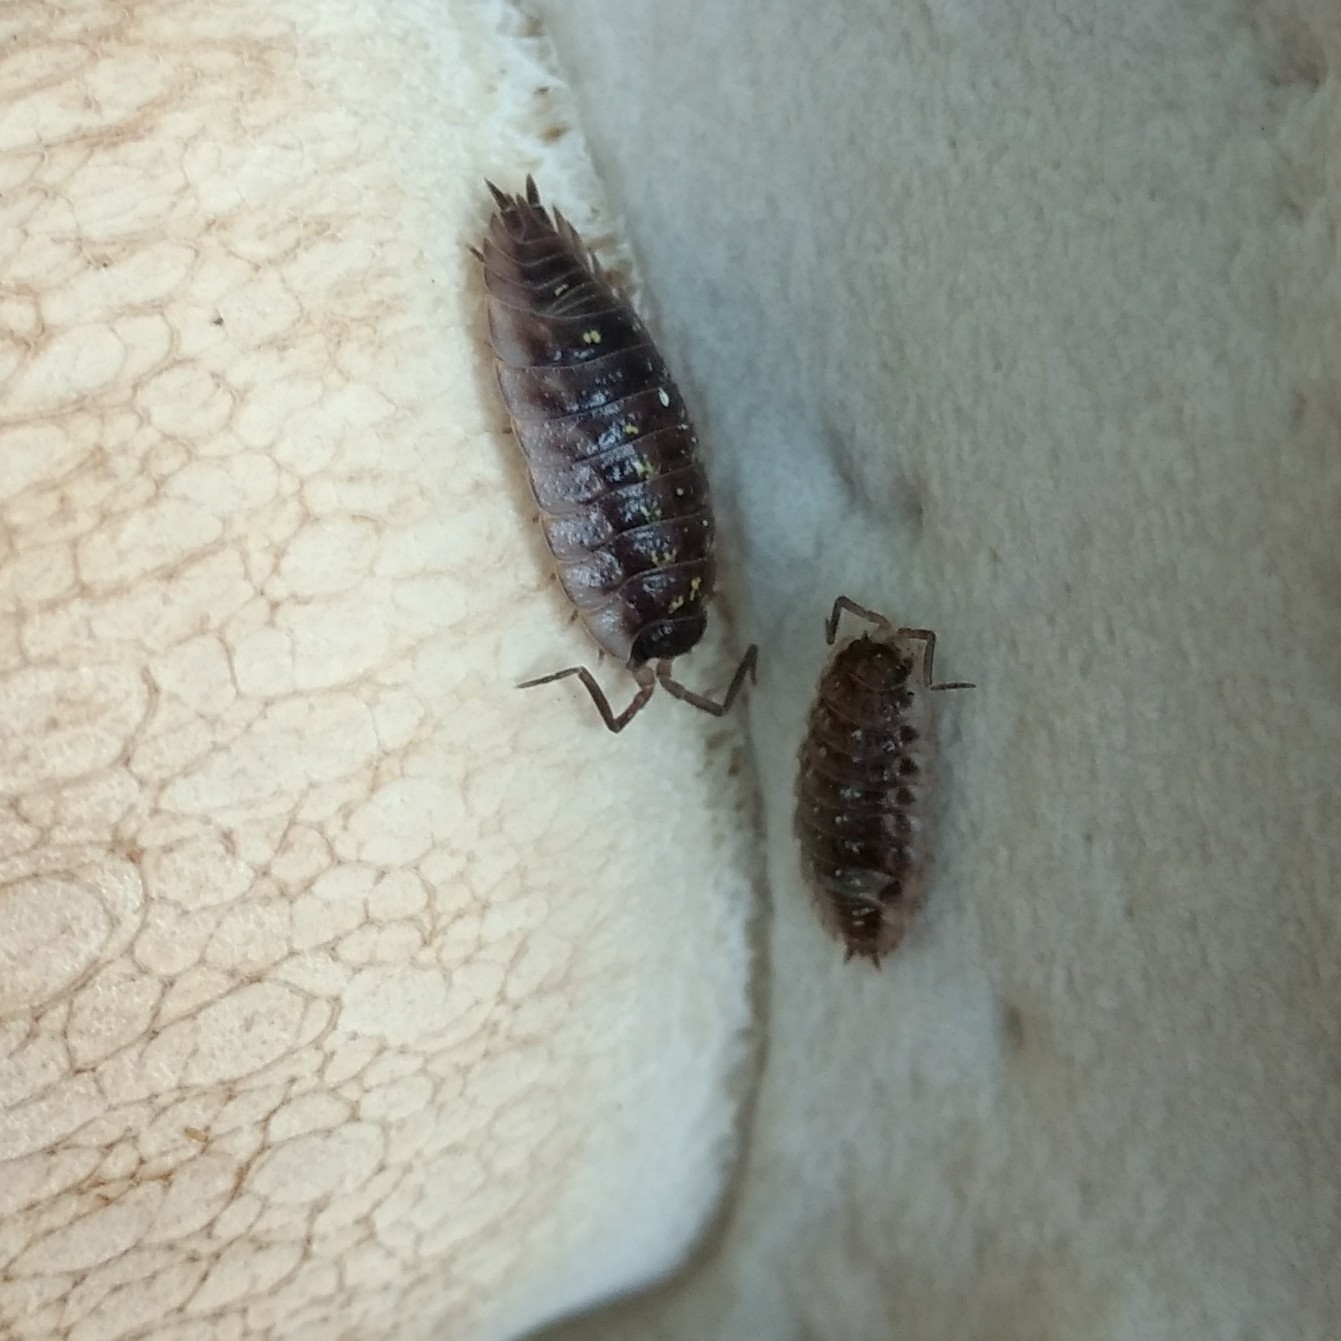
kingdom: Animalia
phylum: Arthropoda
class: Malacostraca
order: Isopoda
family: Oniscidae
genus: Oniscus
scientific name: Oniscus asellus
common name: Common shiny woodlouse
